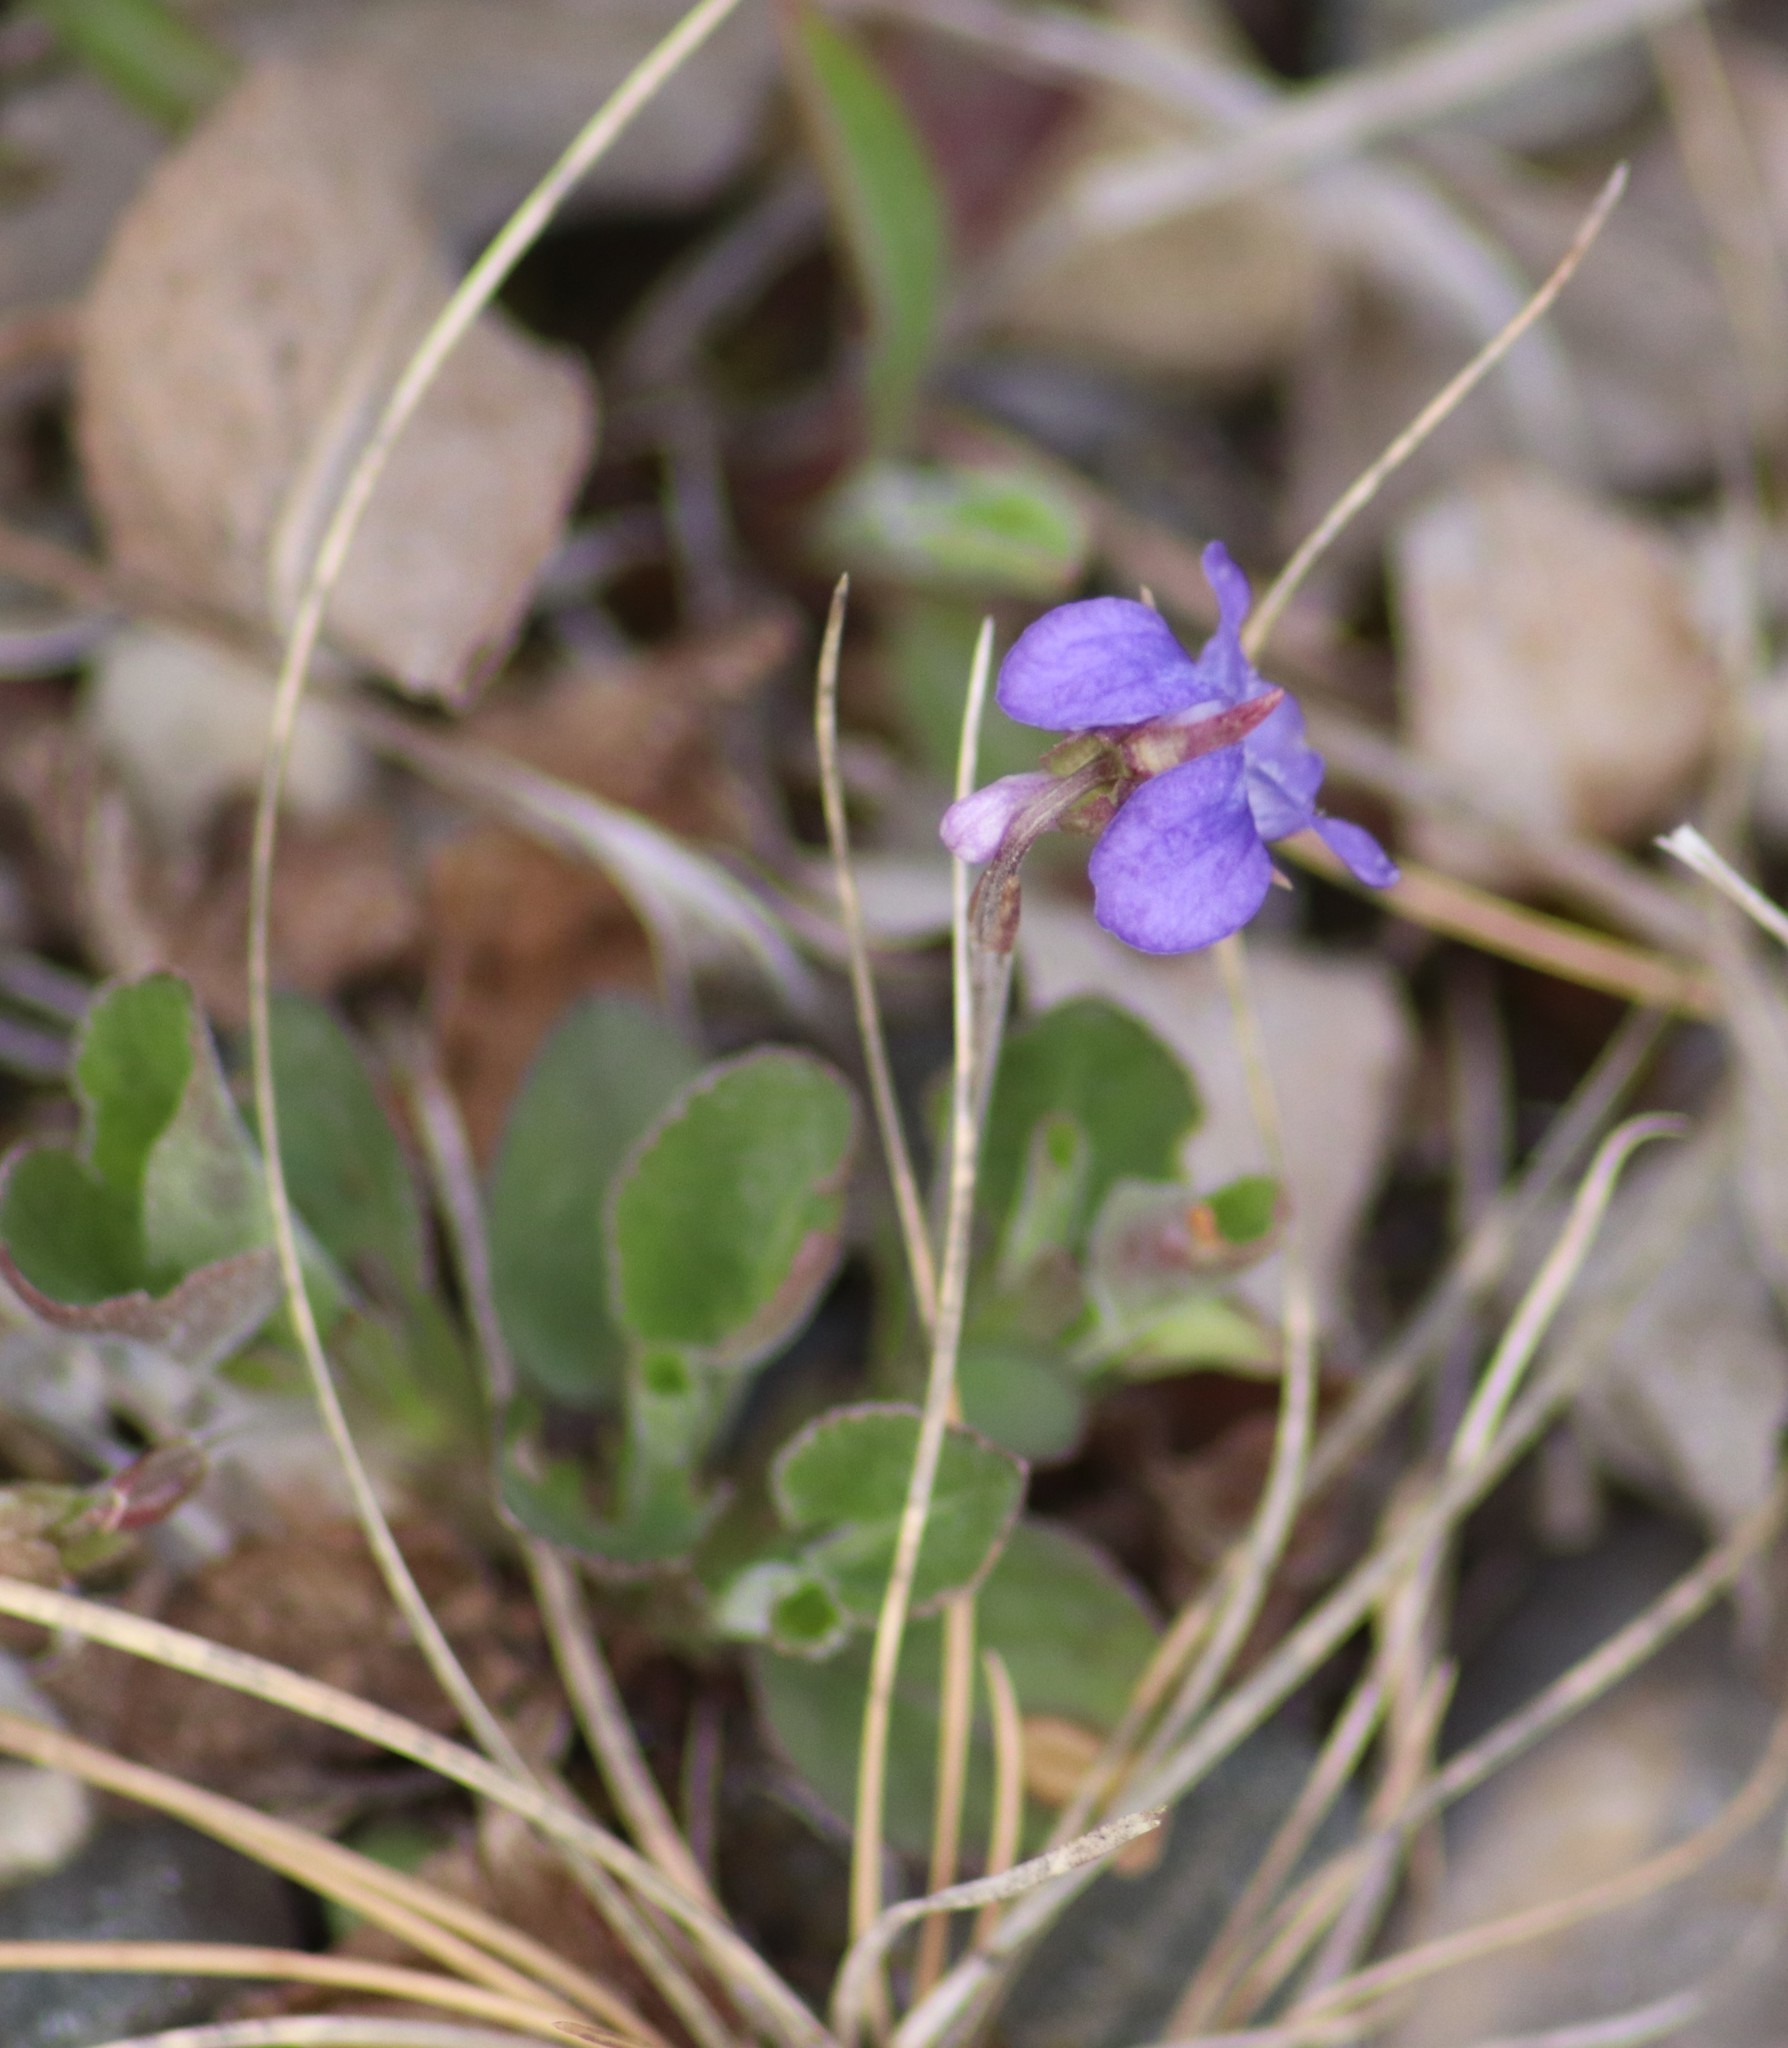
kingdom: Plantae
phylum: Tracheophyta
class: Magnoliopsida
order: Malpighiales
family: Violaceae
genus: Viola
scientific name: Viola adunca
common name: Sand violet
